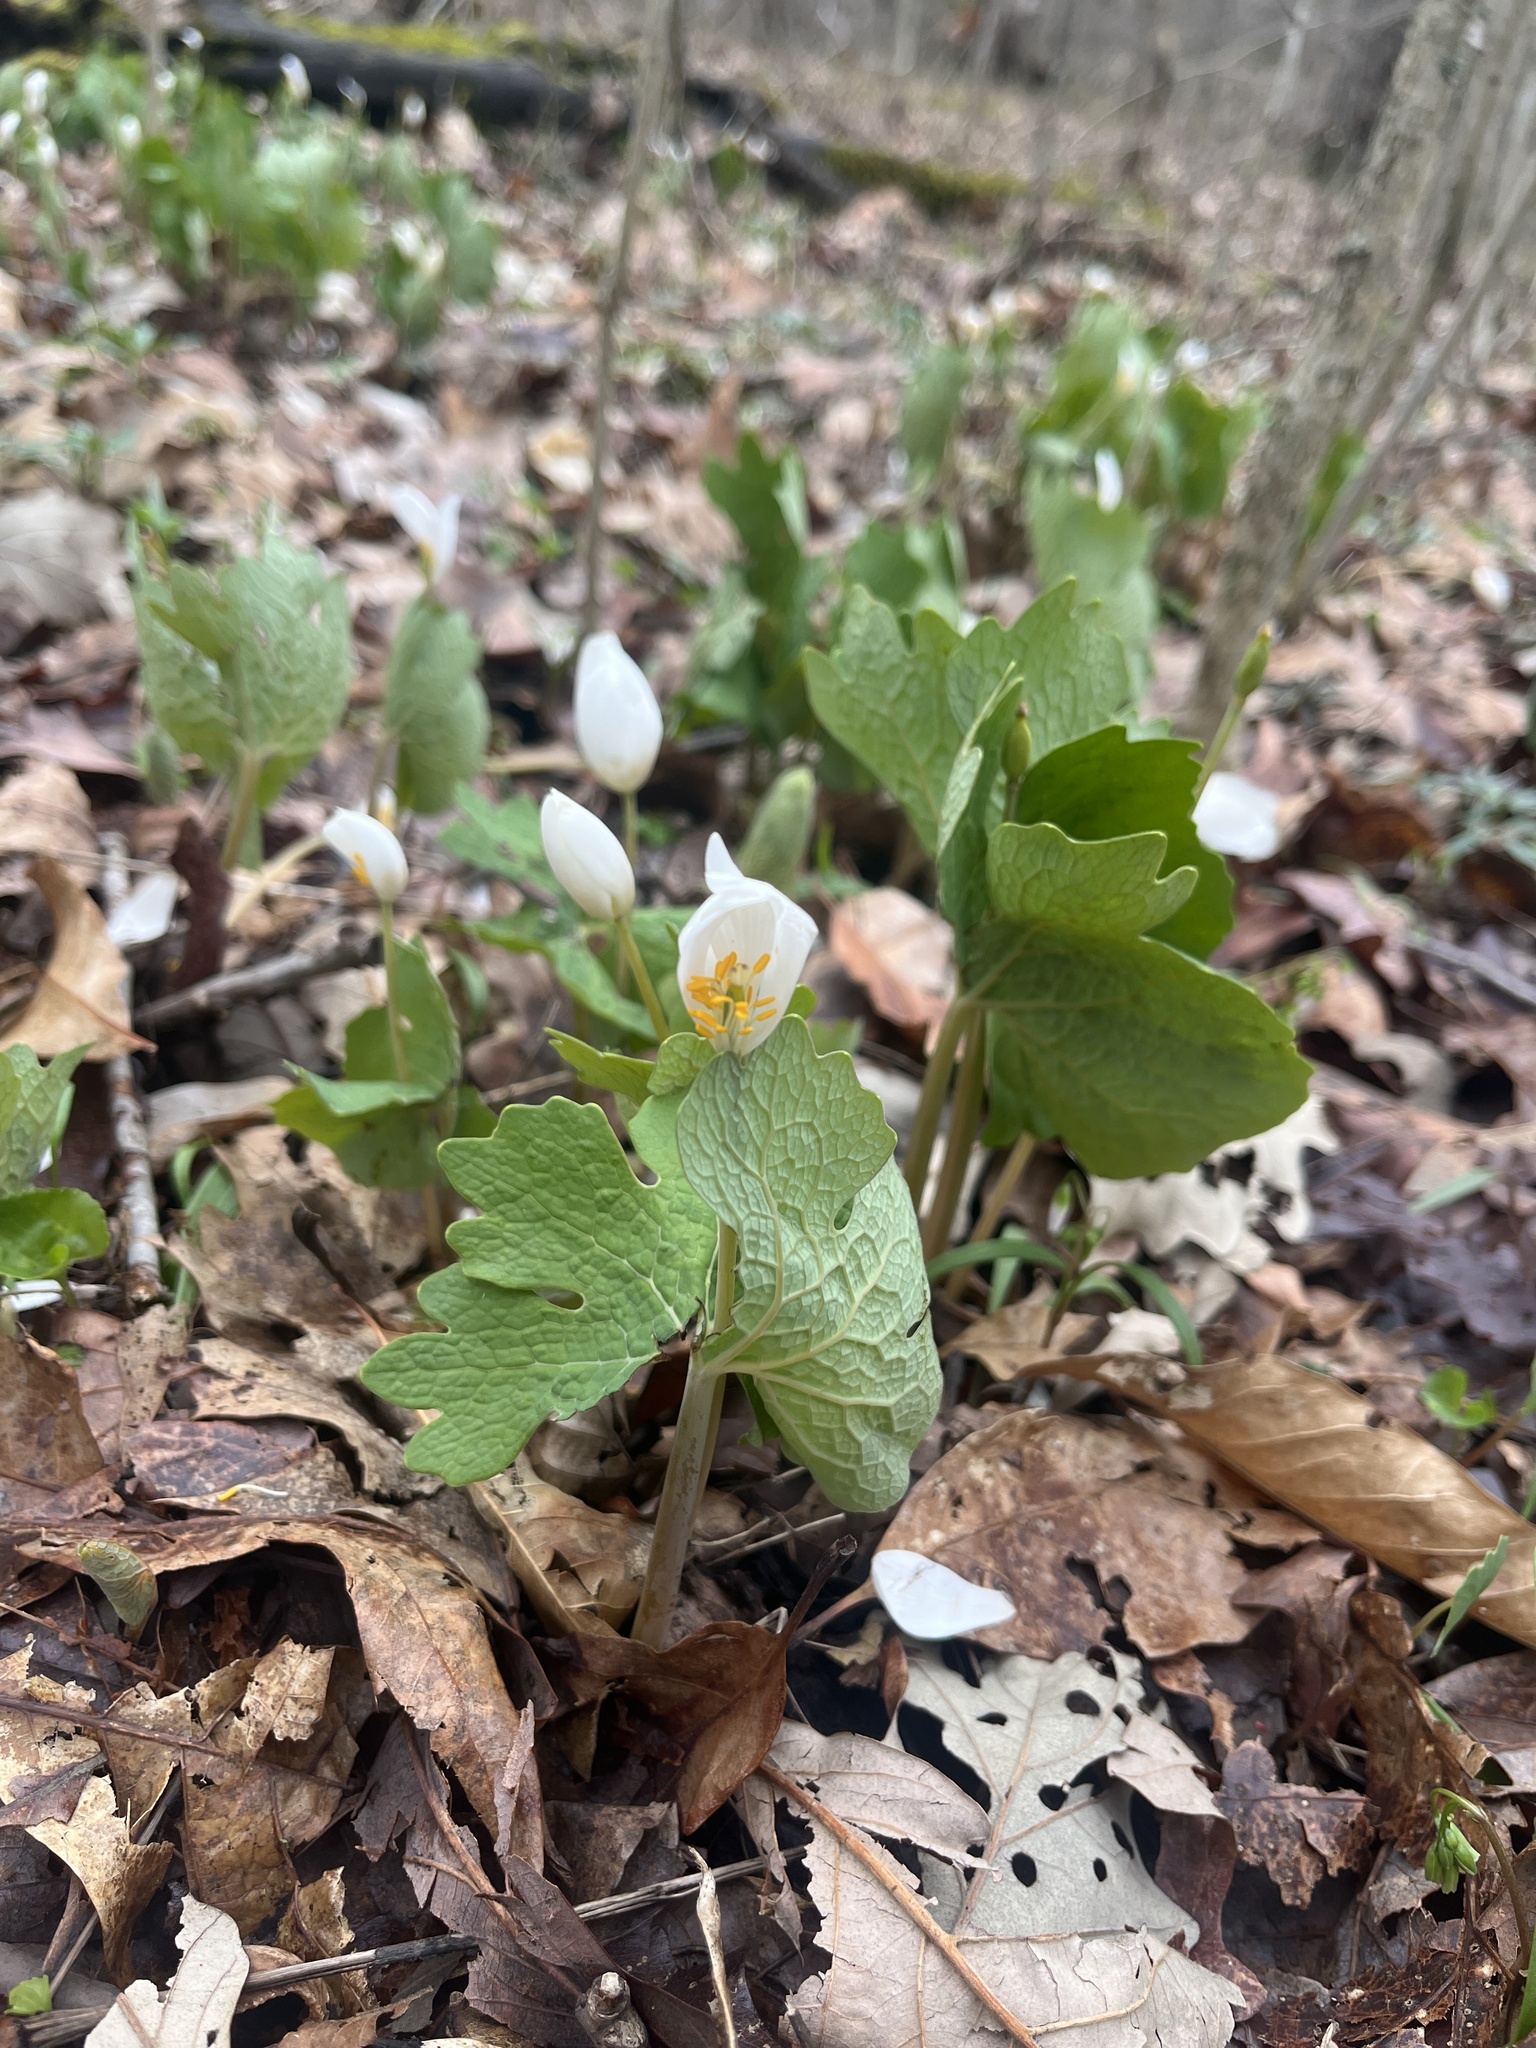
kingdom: Plantae
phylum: Tracheophyta
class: Magnoliopsida
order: Ranunculales
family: Papaveraceae
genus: Sanguinaria
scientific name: Sanguinaria canadensis
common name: Bloodroot
